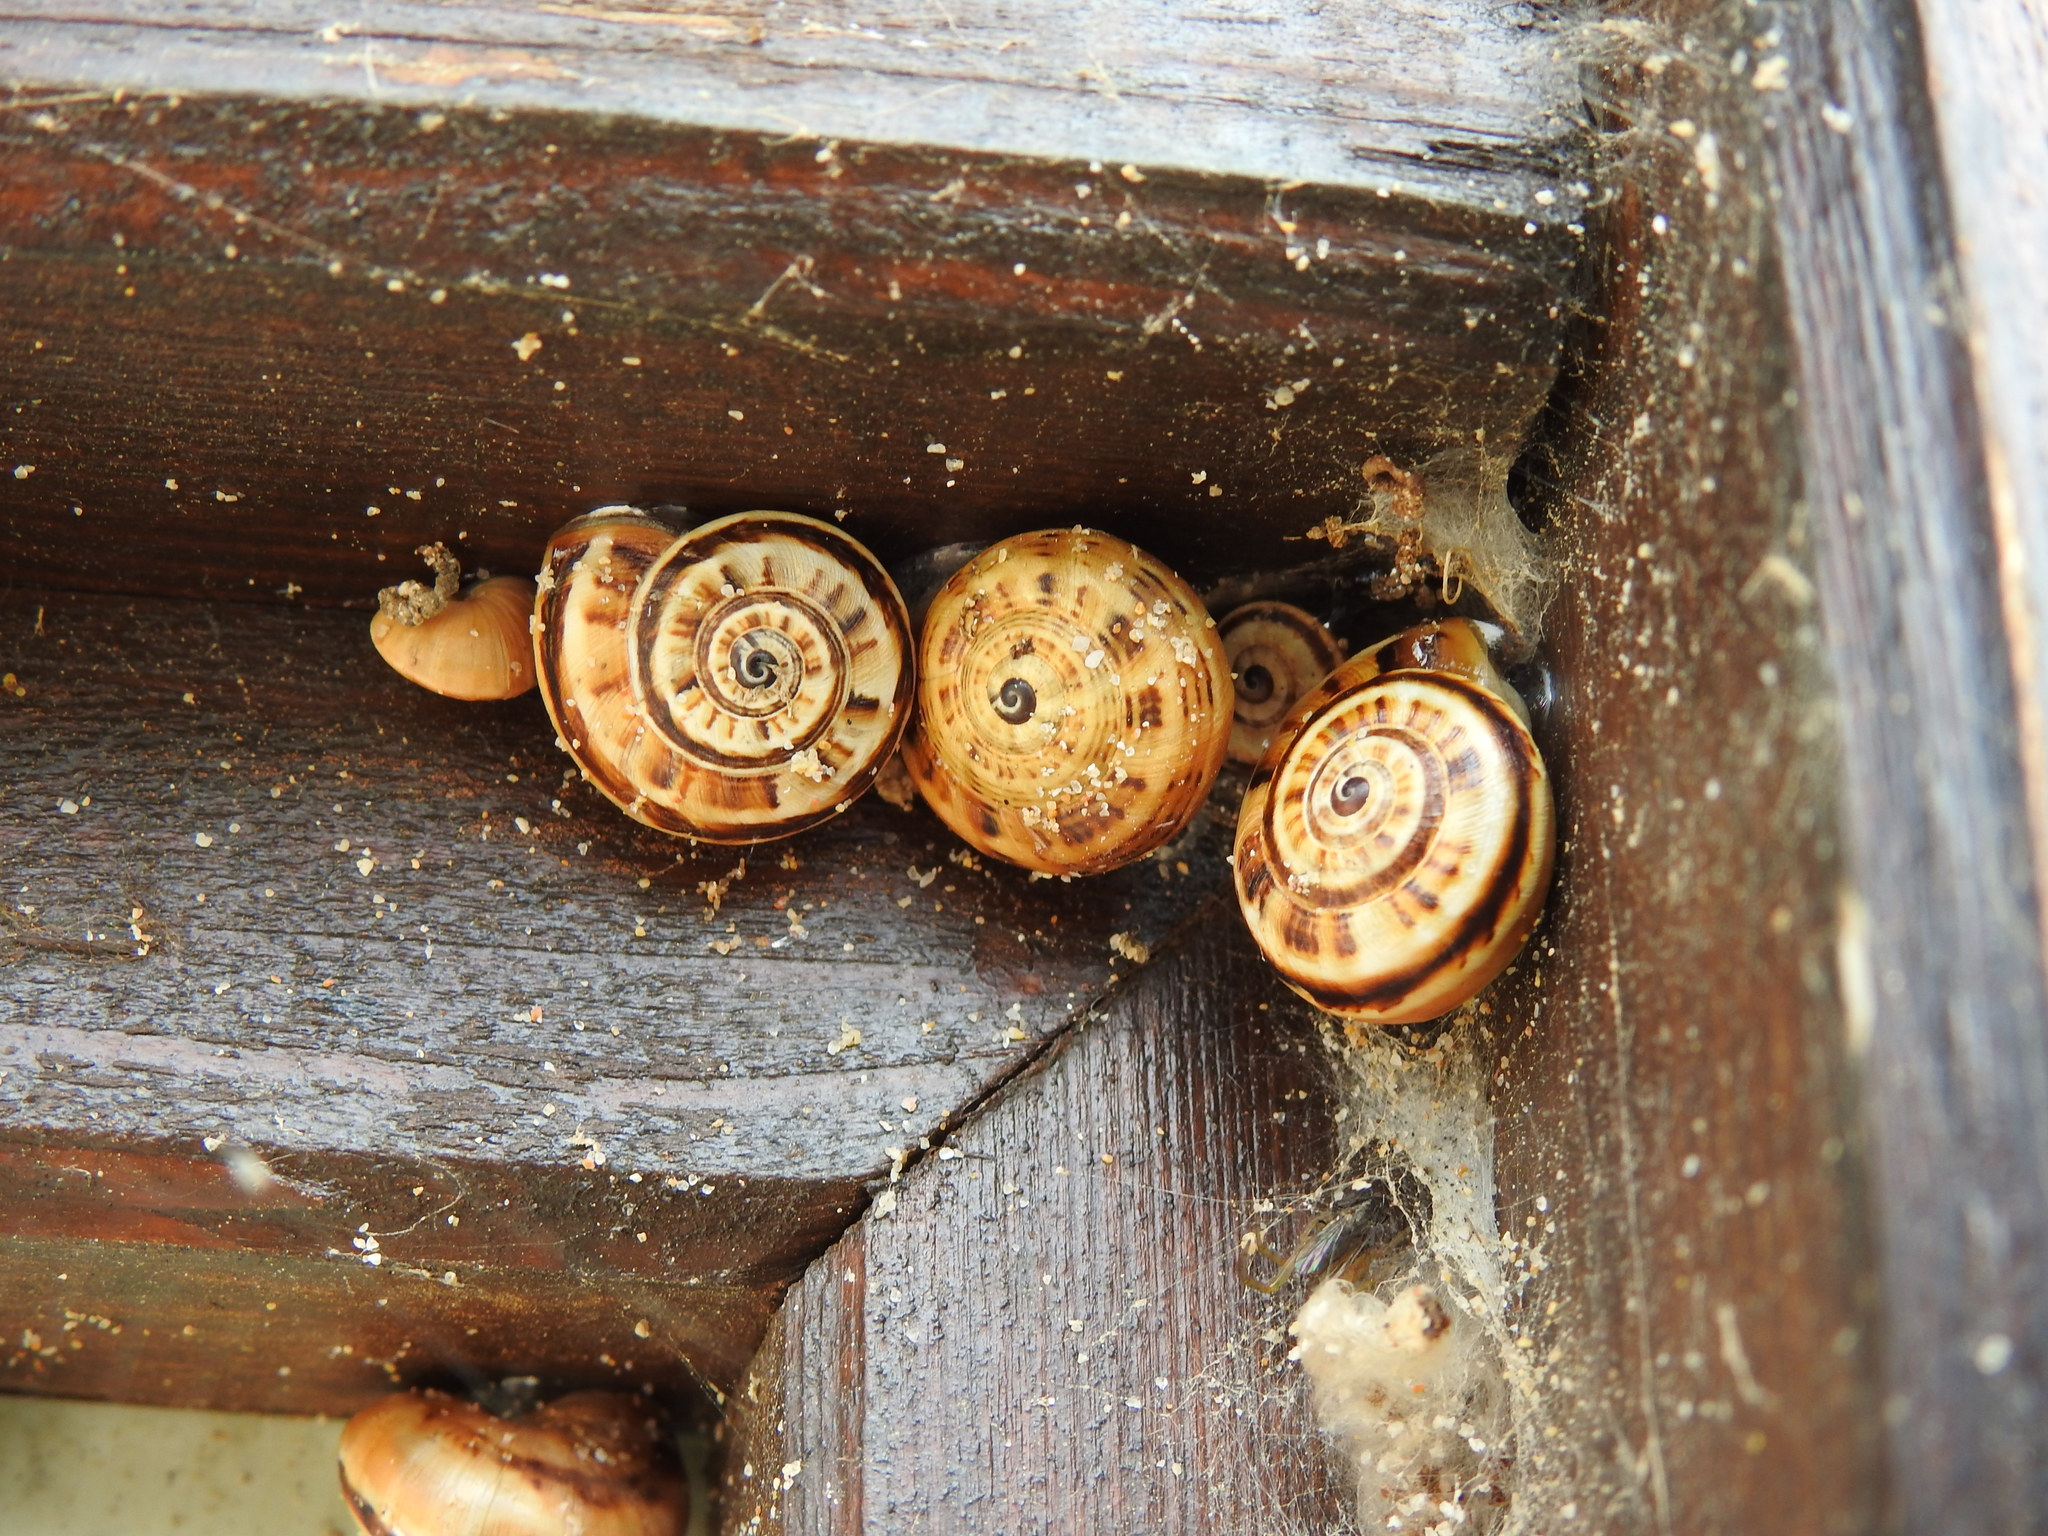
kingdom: Animalia
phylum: Mollusca
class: Gastropoda
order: Stylommatophora
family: Helicidae
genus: Theba
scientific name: Theba pisana
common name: White snail
